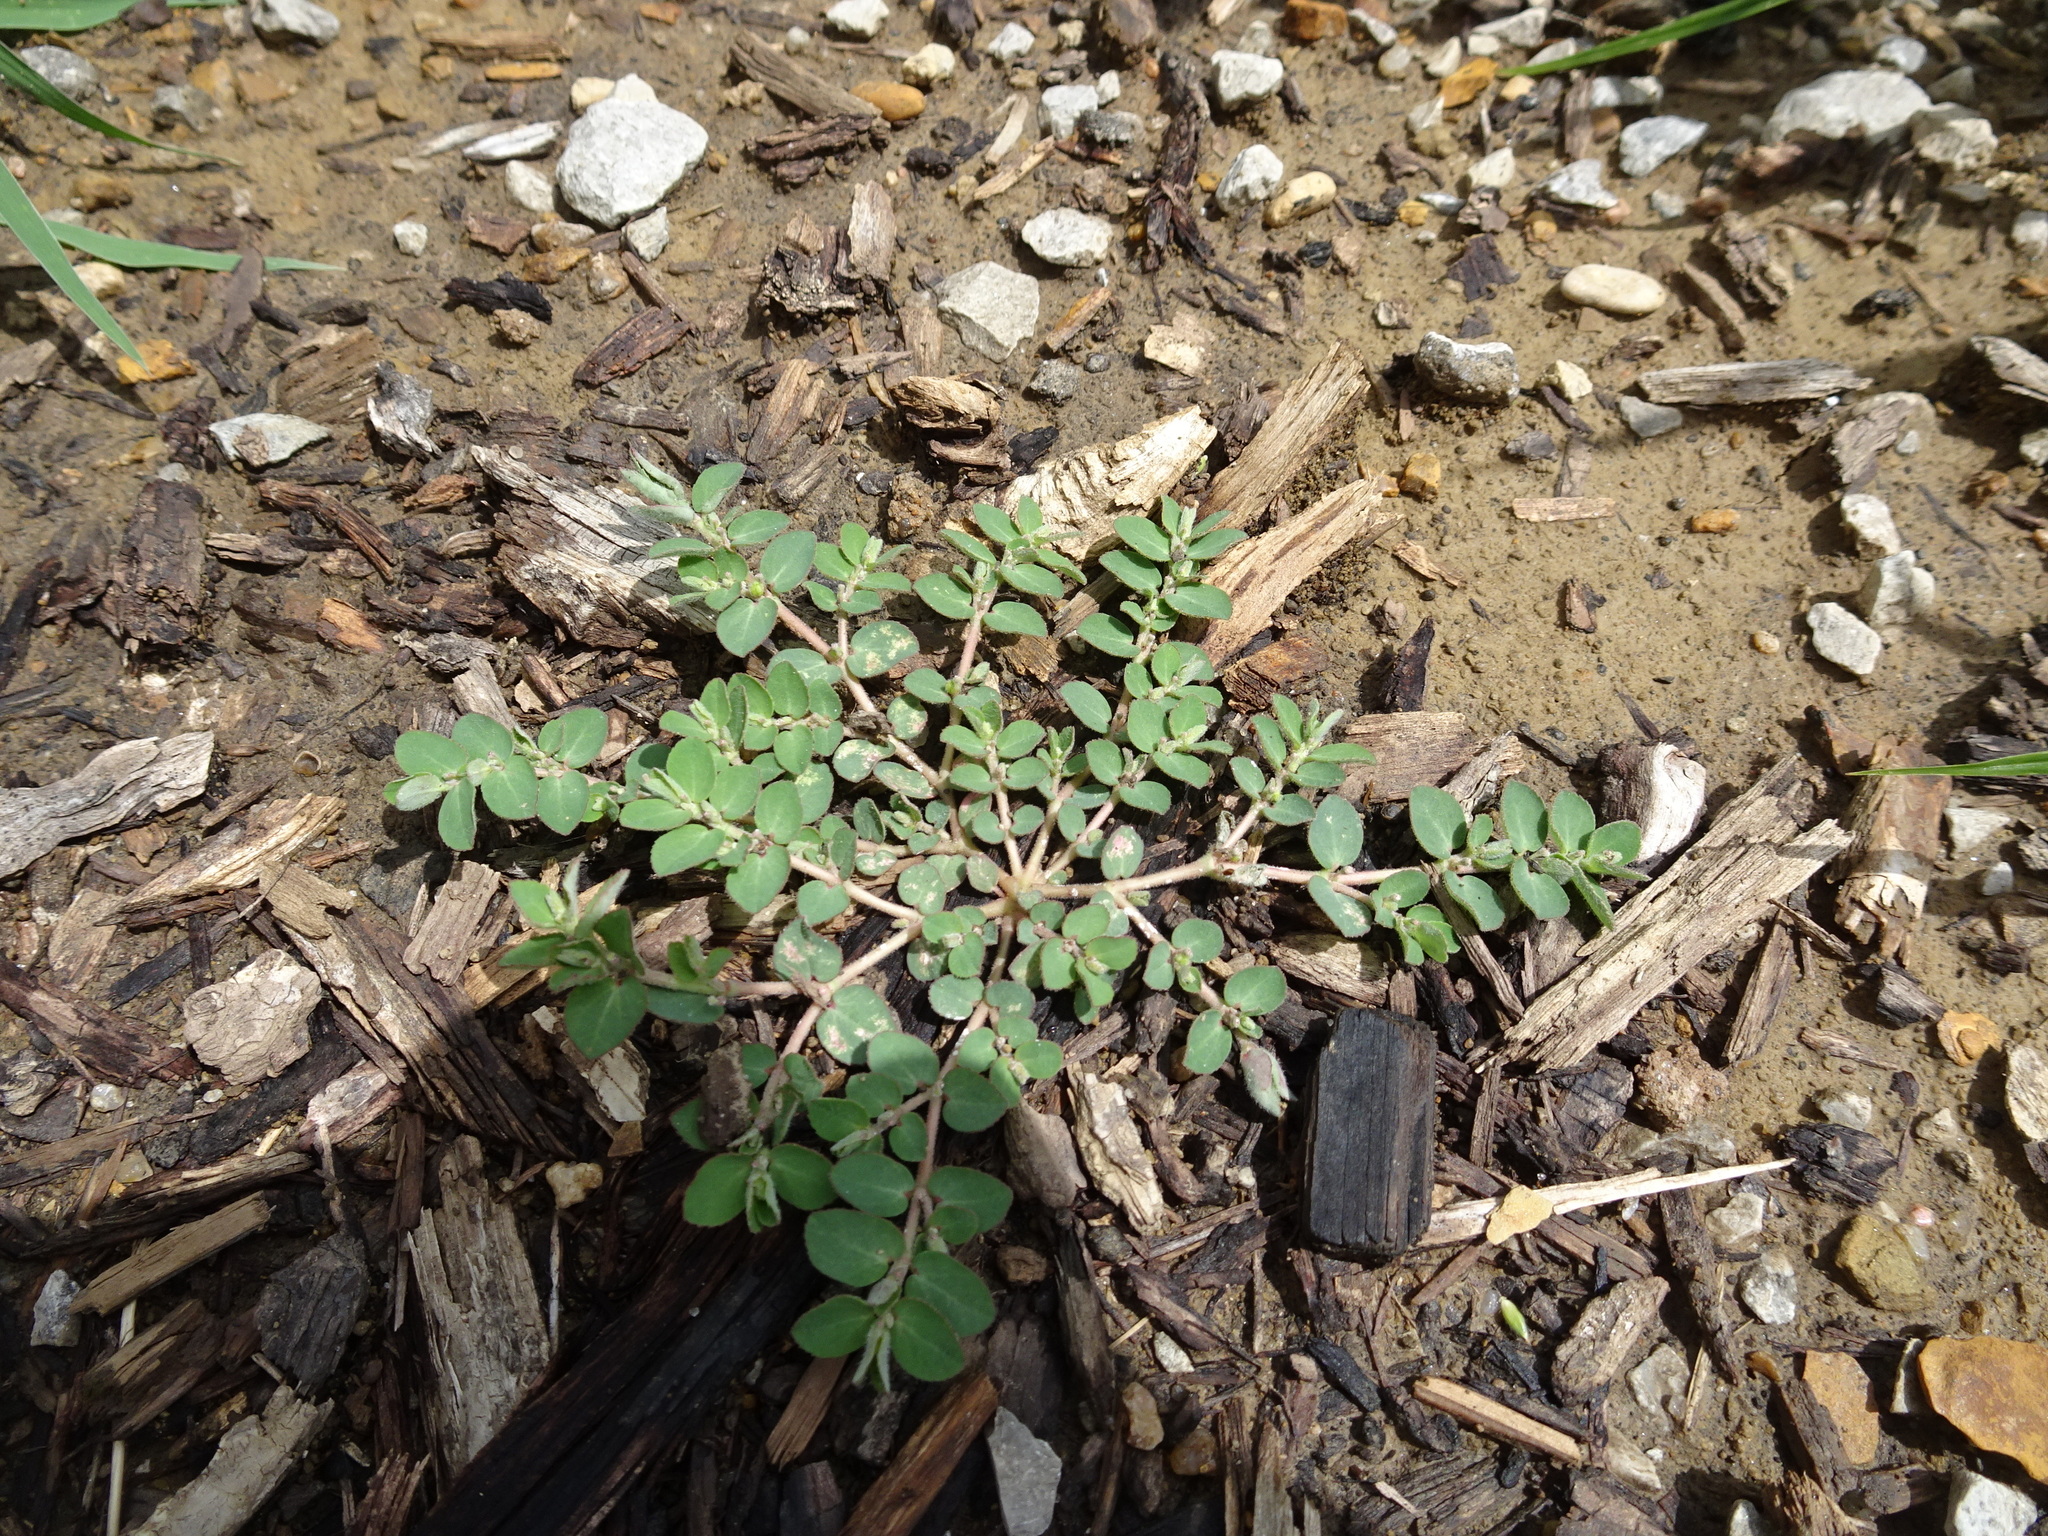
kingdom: Plantae
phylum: Tracheophyta
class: Magnoliopsida
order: Malpighiales
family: Euphorbiaceae
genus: Euphorbia
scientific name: Euphorbia prostrata
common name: Prostrate sandmat
